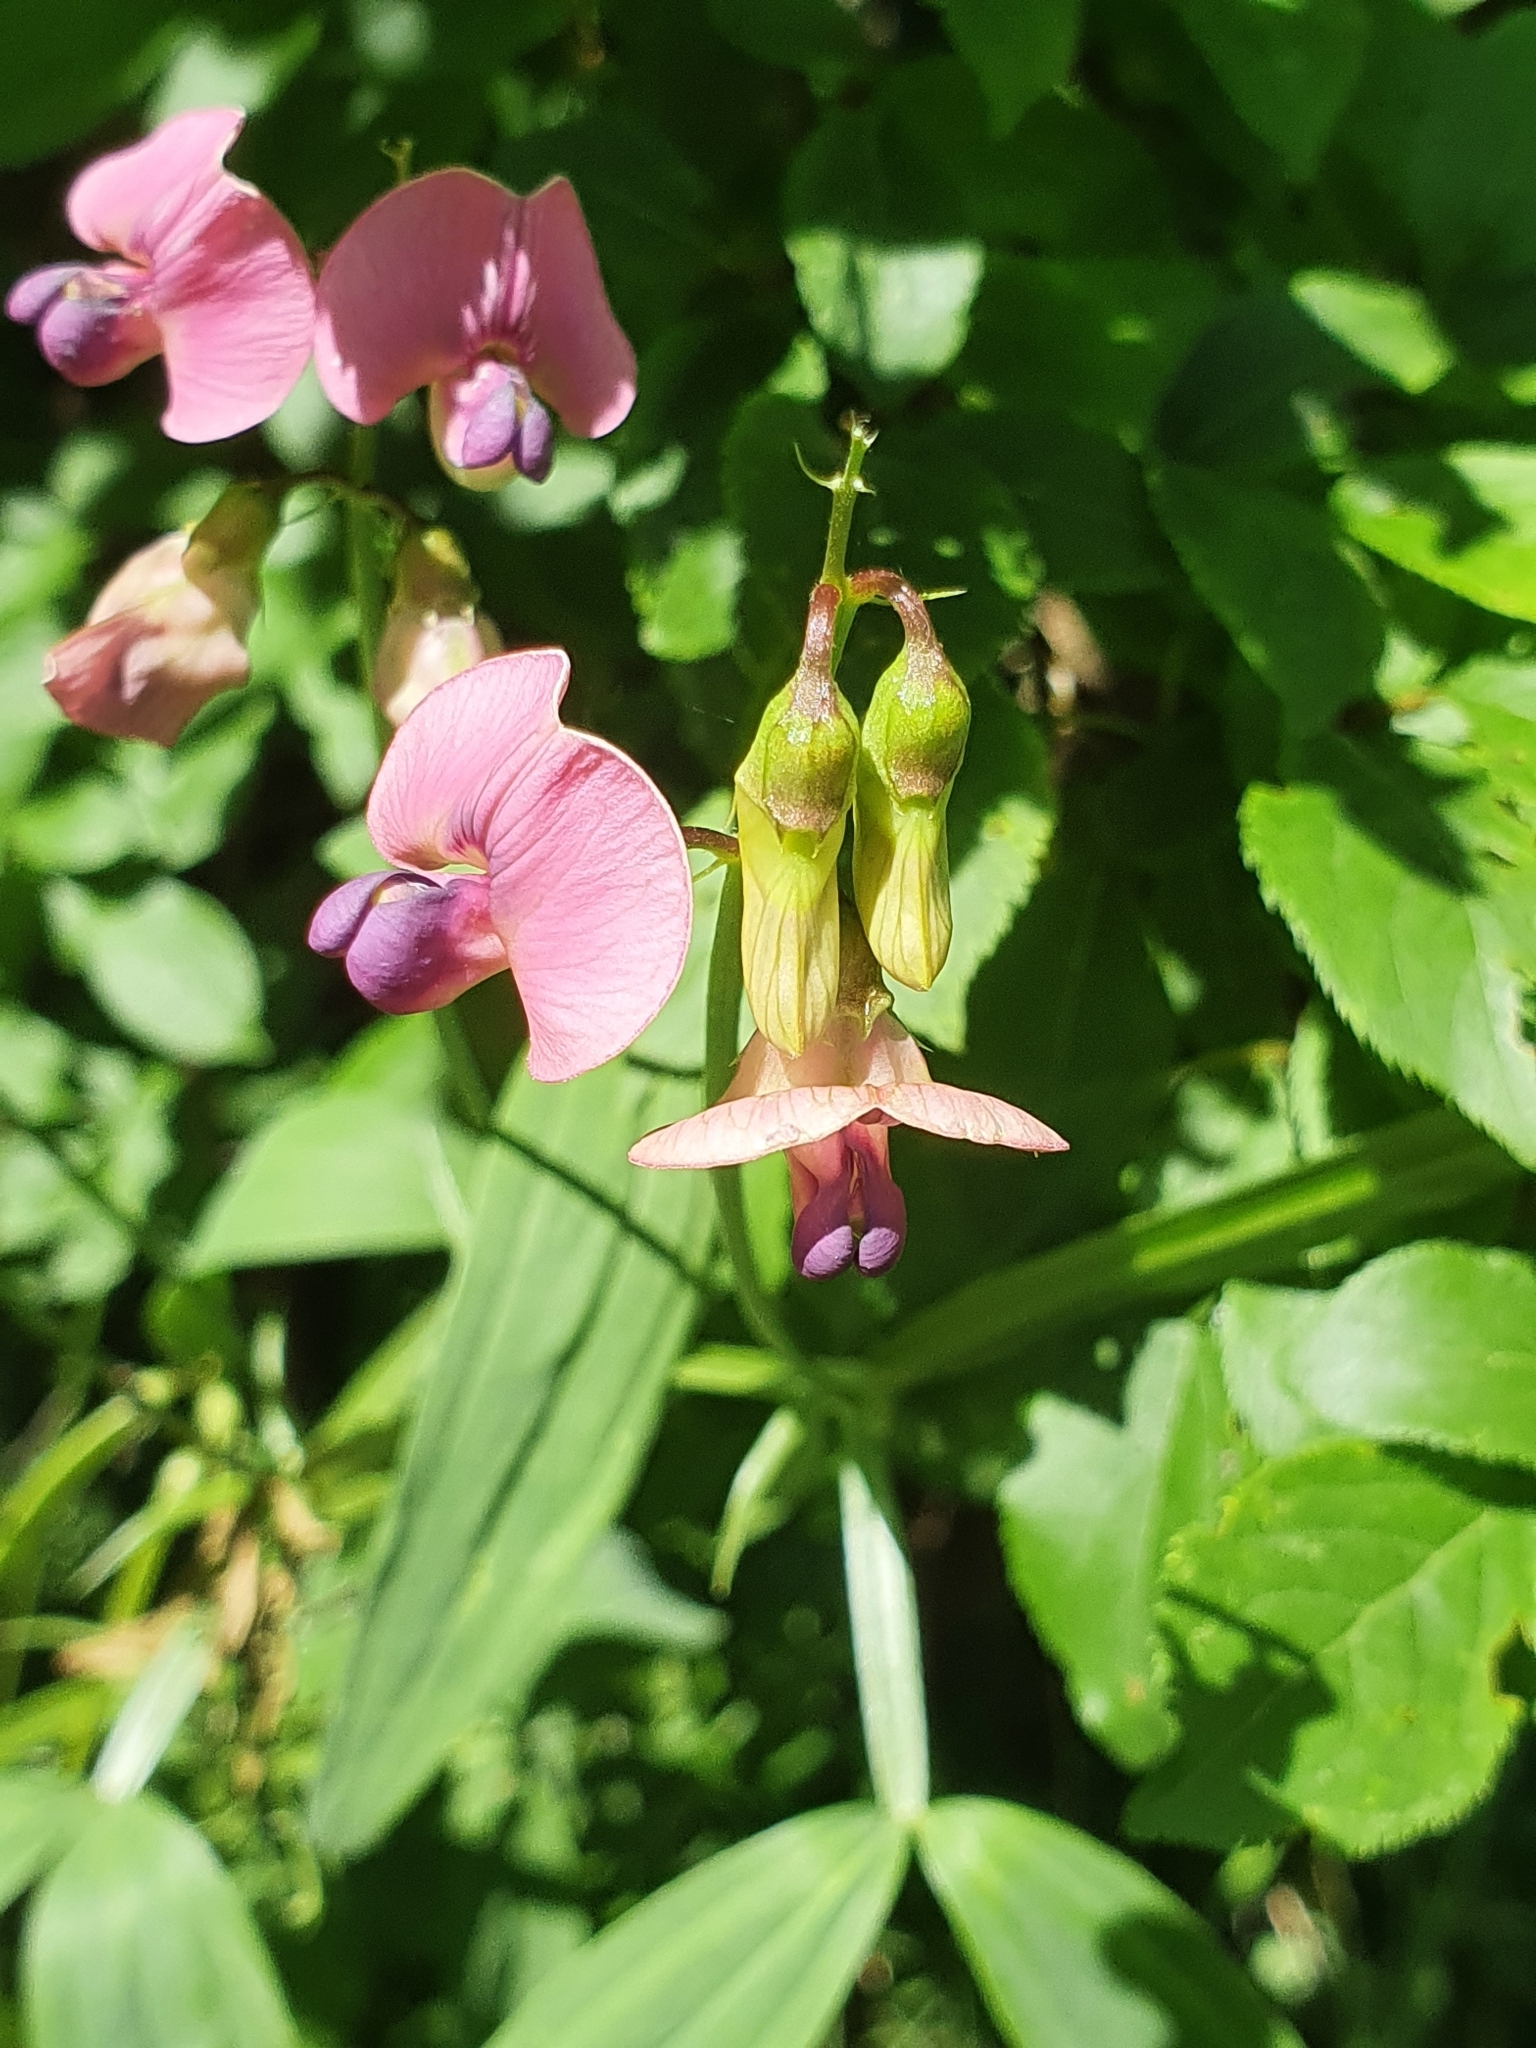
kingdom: Plantae
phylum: Tracheophyta
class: Magnoliopsida
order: Fabales
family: Fabaceae
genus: Lathyrus
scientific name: Lathyrus sylvestris
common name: Flat pea
